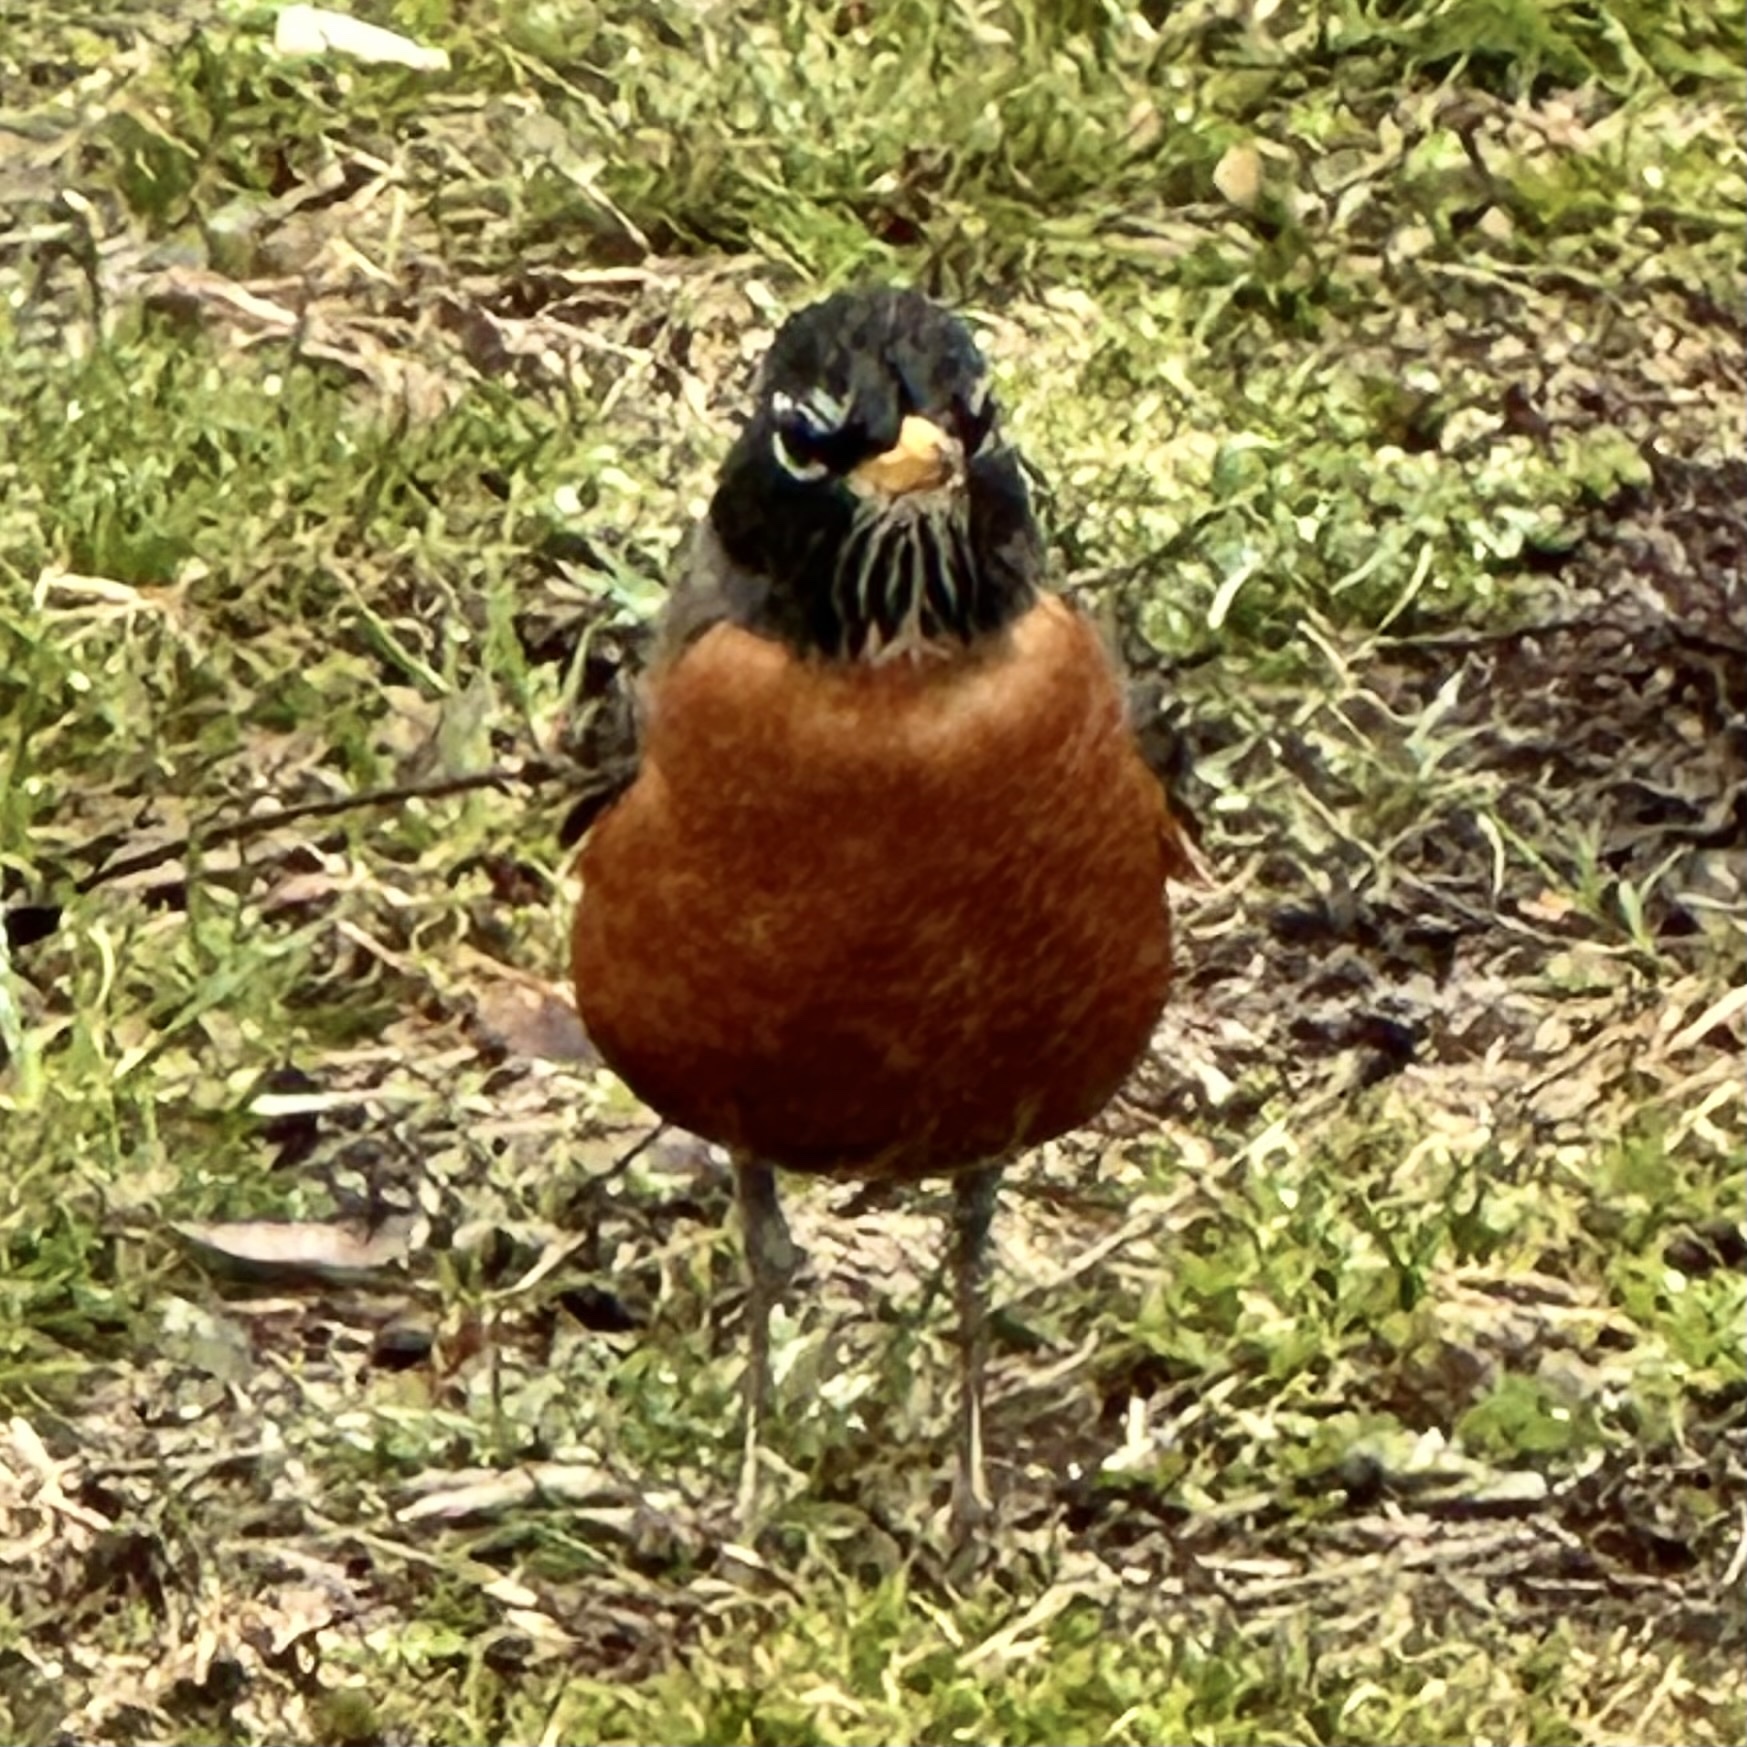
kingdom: Animalia
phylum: Chordata
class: Aves
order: Passeriformes
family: Turdidae
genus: Turdus
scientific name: Turdus migratorius
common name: American robin
